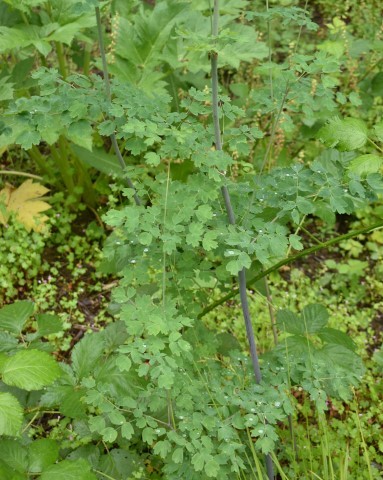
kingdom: Plantae
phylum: Tracheophyta
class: Magnoliopsida
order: Ranunculales
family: Ranunculaceae
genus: Thalictrum
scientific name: Thalictrum fendleri
